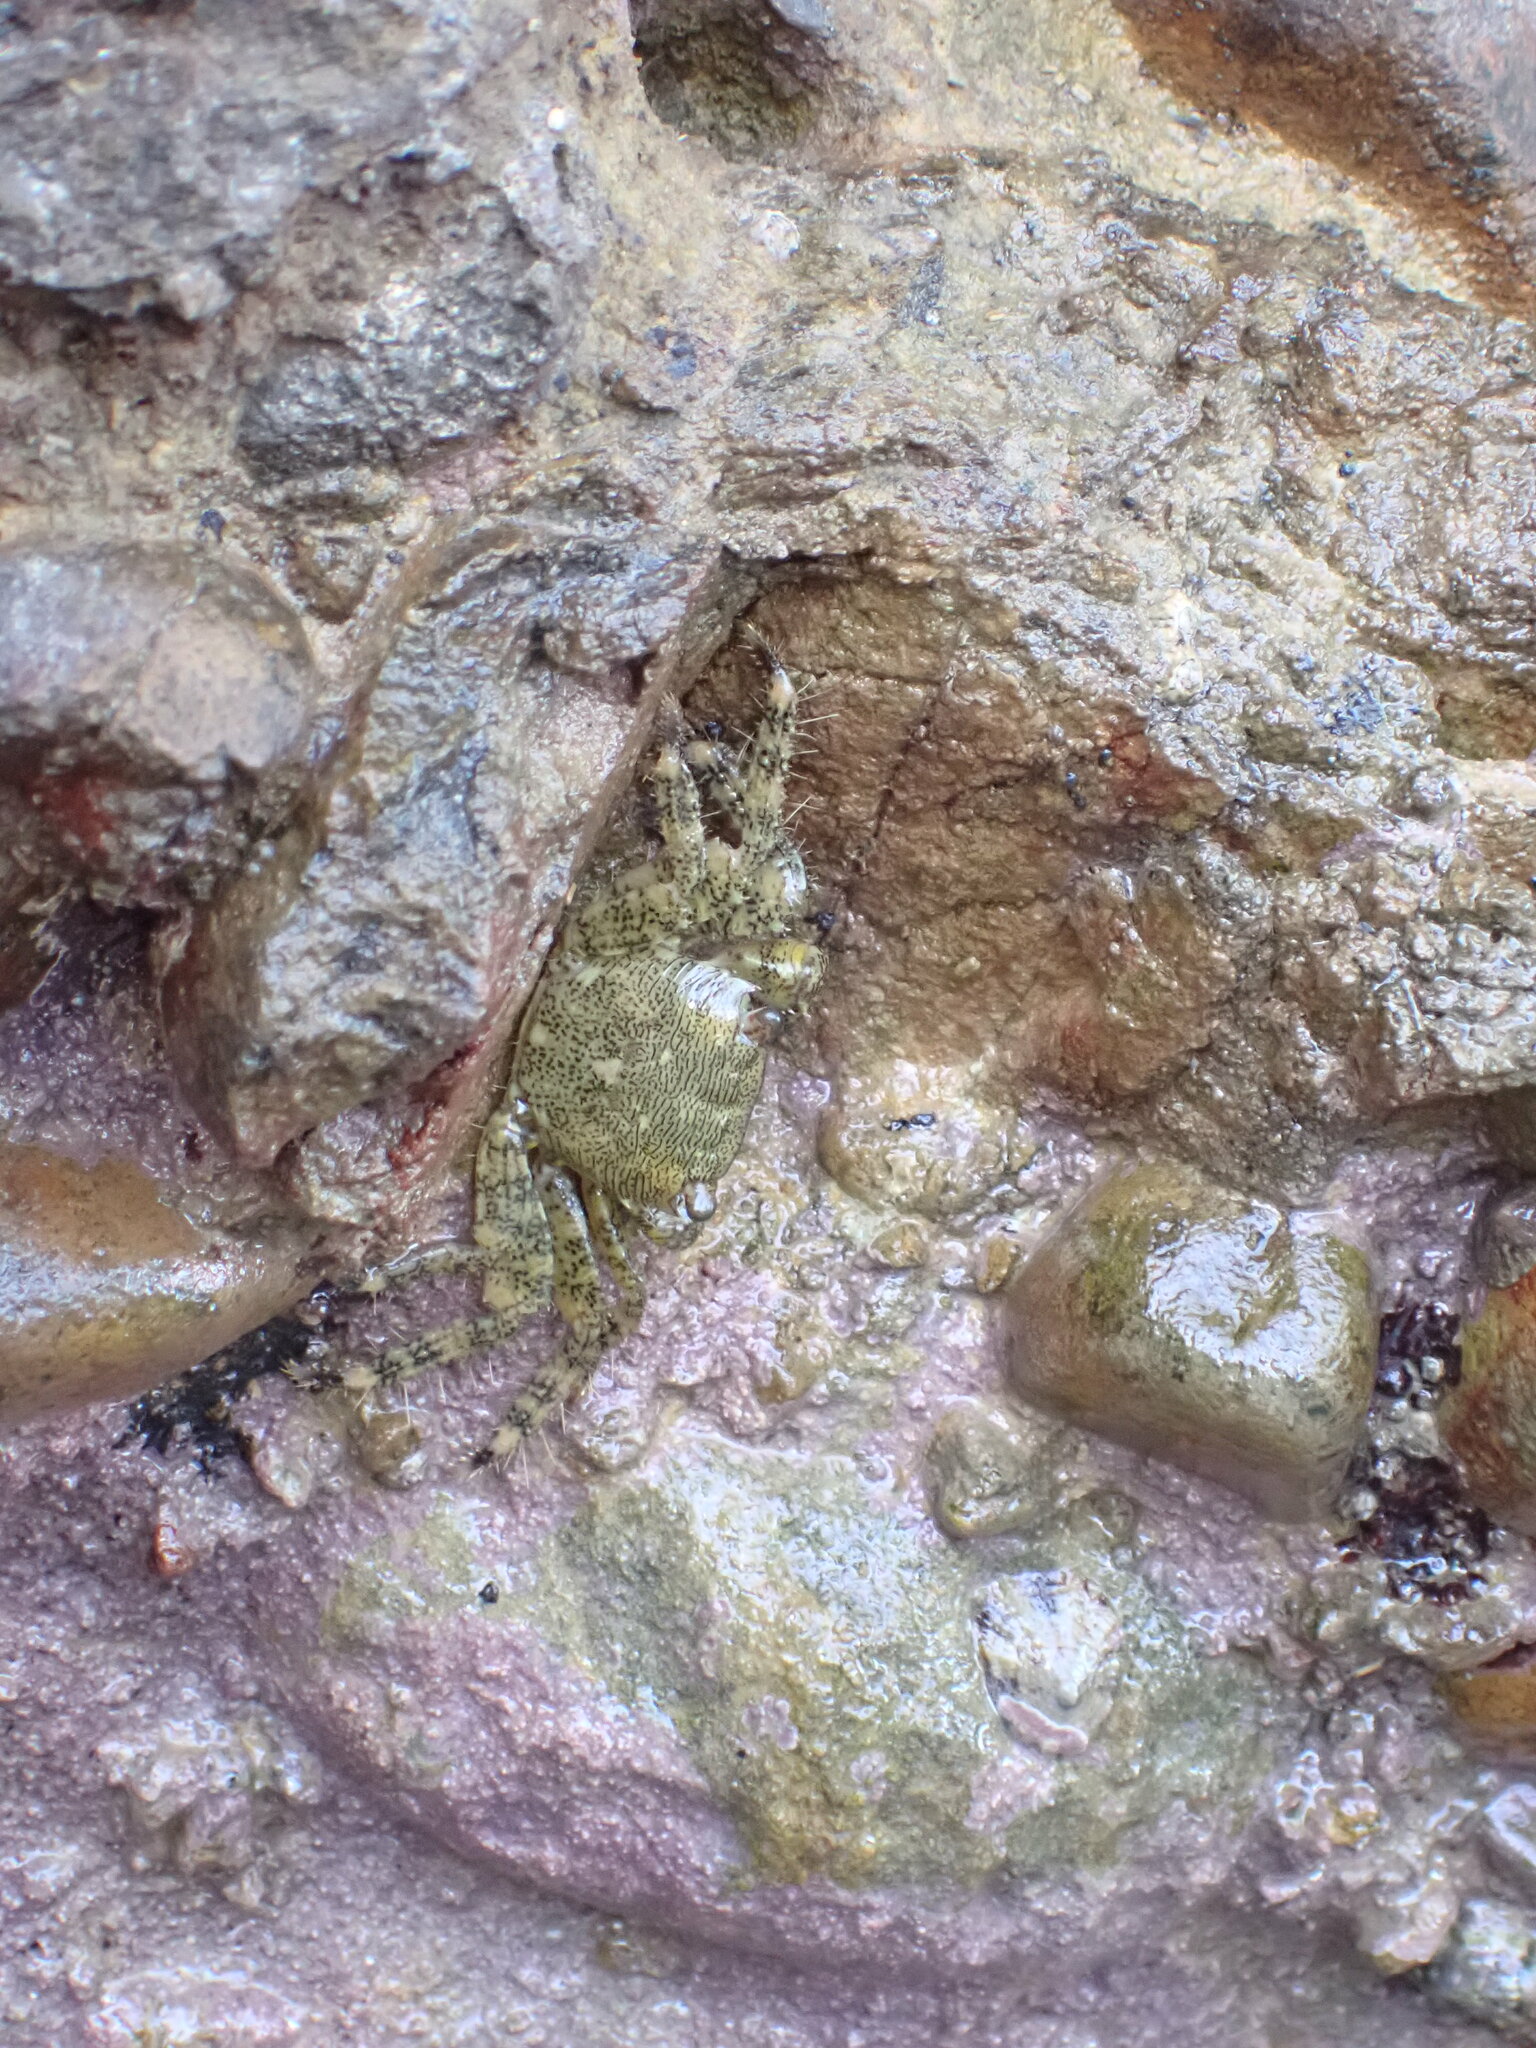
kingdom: Animalia
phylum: Arthropoda
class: Malacostraca
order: Decapoda
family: Grapsidae
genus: Pachygrapsus
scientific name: Pachygrapsus marmoratus
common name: Marbled rock crab
